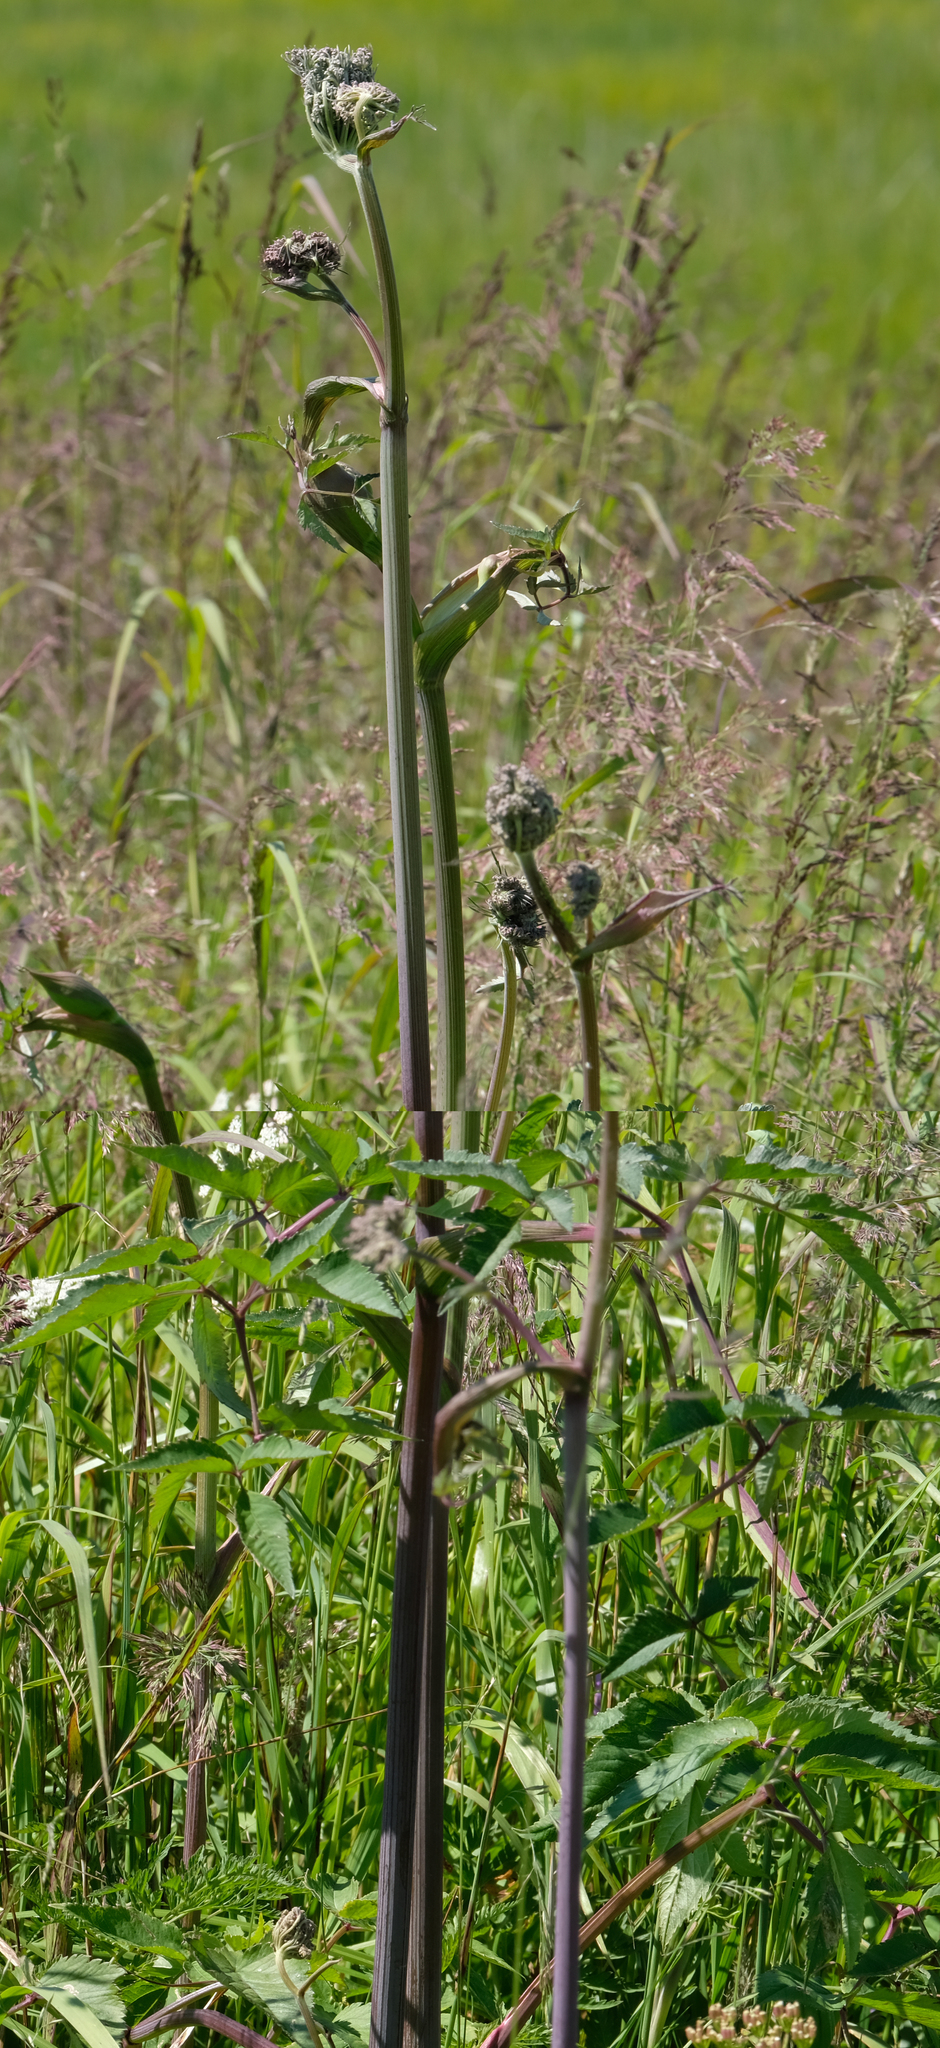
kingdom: Plantae
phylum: Tracheophyta
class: Magnoliopsida
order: Apiales
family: Apiaceae
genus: Angelica
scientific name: Angelica genuflexa
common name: Kneeling angelica
